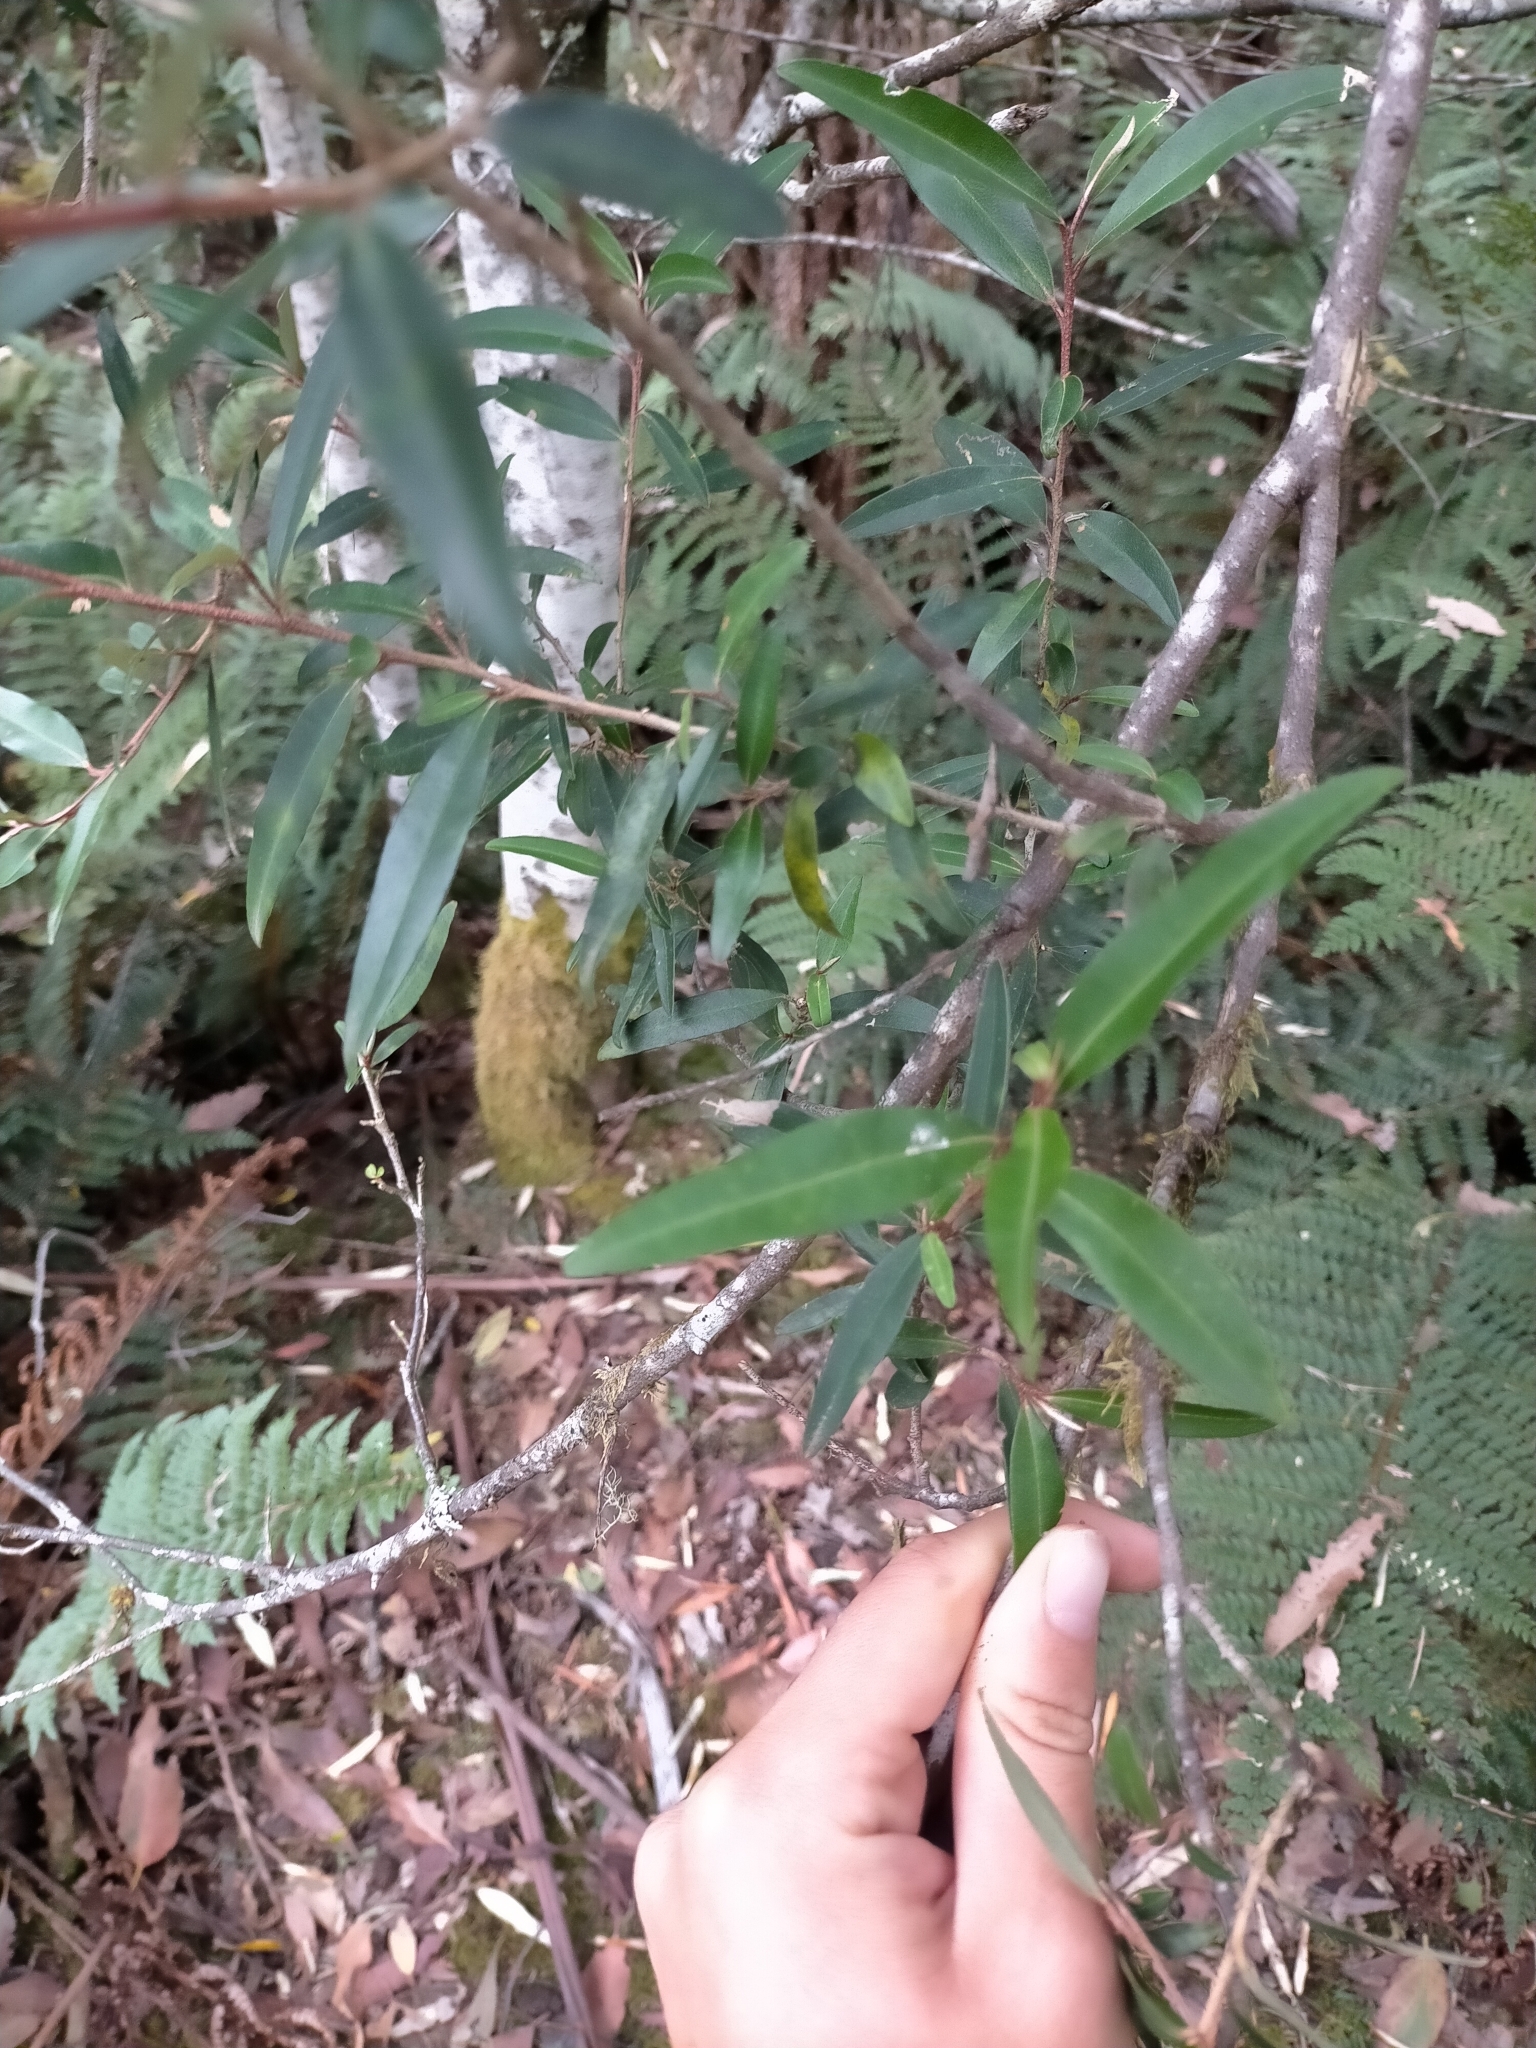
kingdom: Plantae
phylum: Tracheophyta
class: Magnoliopsida
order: Sapindales
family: Rutaceae
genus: Nematolepis
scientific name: Nematolepis squamea
